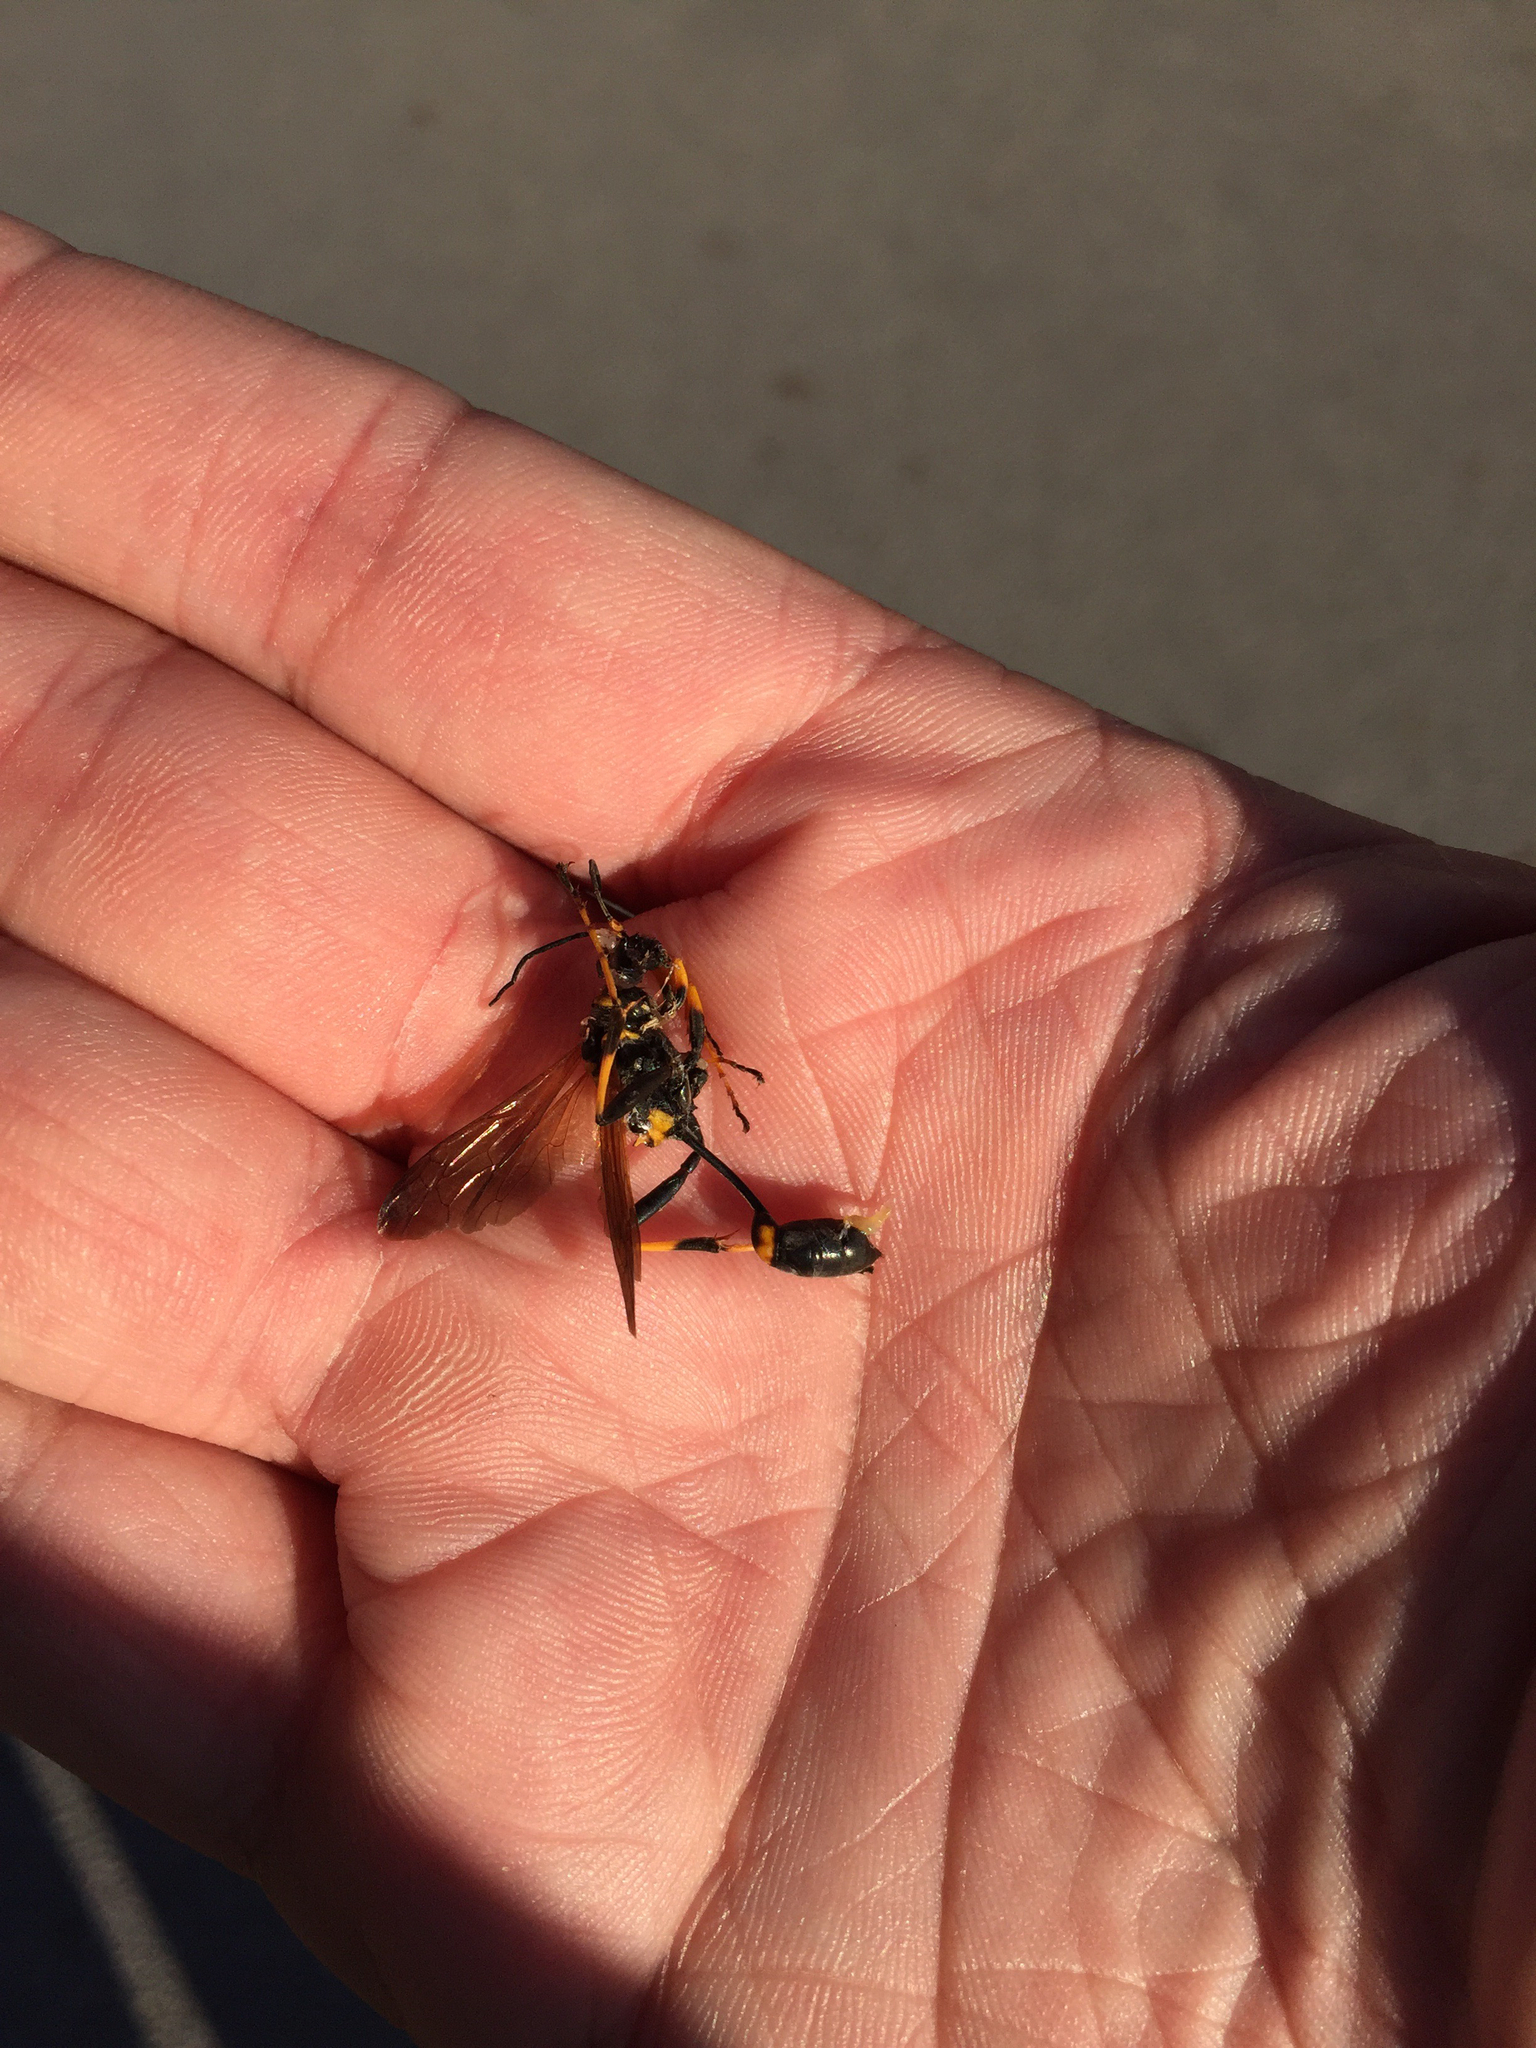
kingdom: Animalia
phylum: Arthropoda
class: Insecta
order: Hymenoptera
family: Sphecidae
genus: Sceliphron
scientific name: Sceliphron caementarium
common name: Mud dauber
